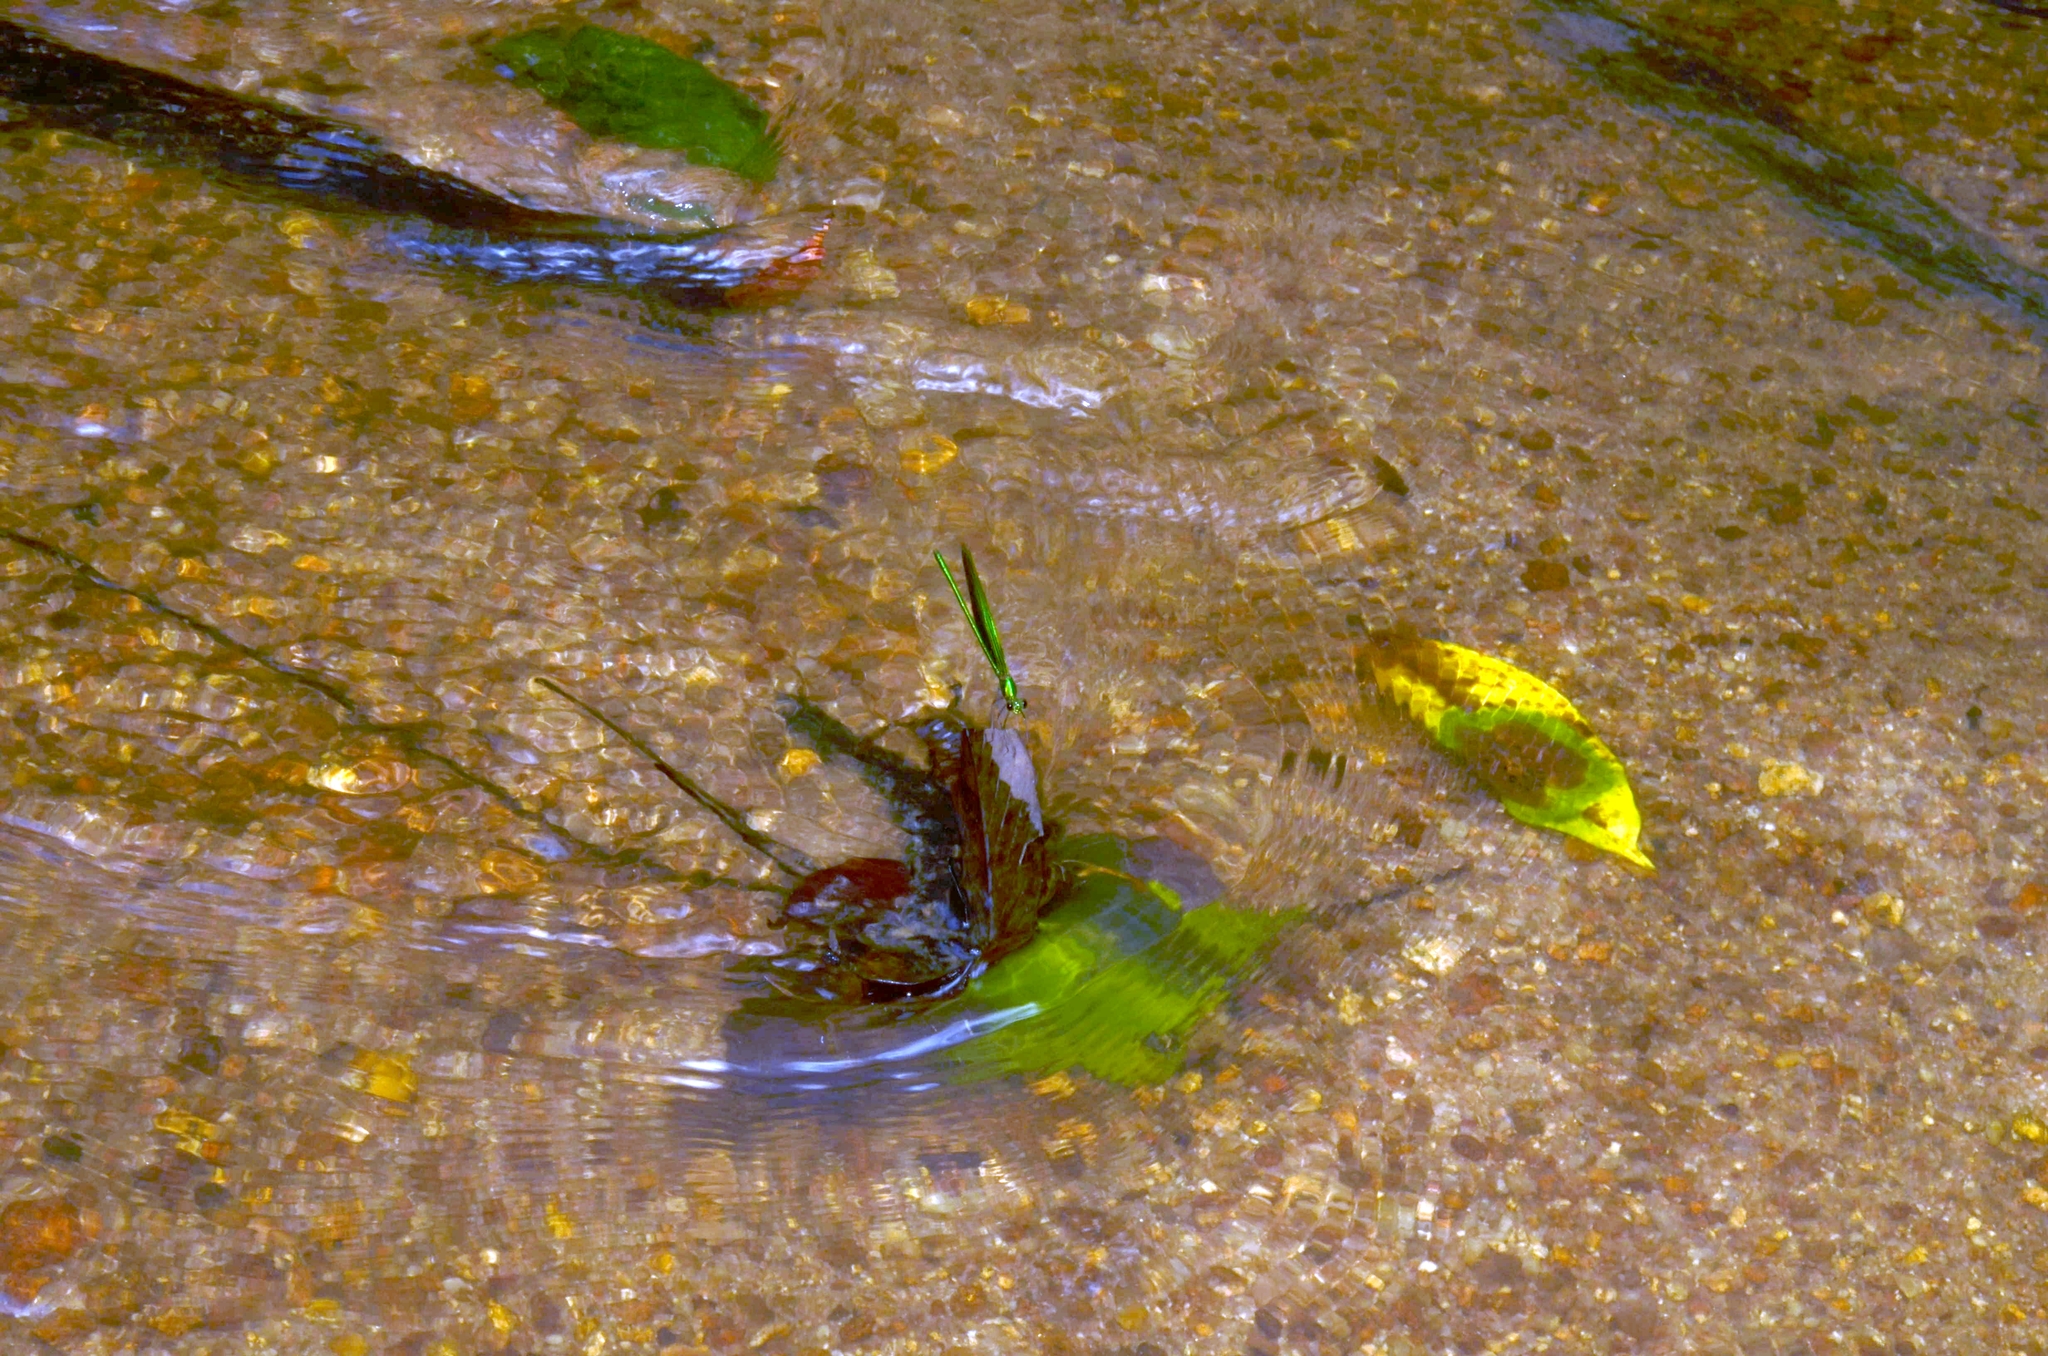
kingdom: Animalia
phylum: Arthropoda
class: Insecta
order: Odonata
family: Calopterygidae
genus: Neurobasis
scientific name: Neurobasis chinensis
